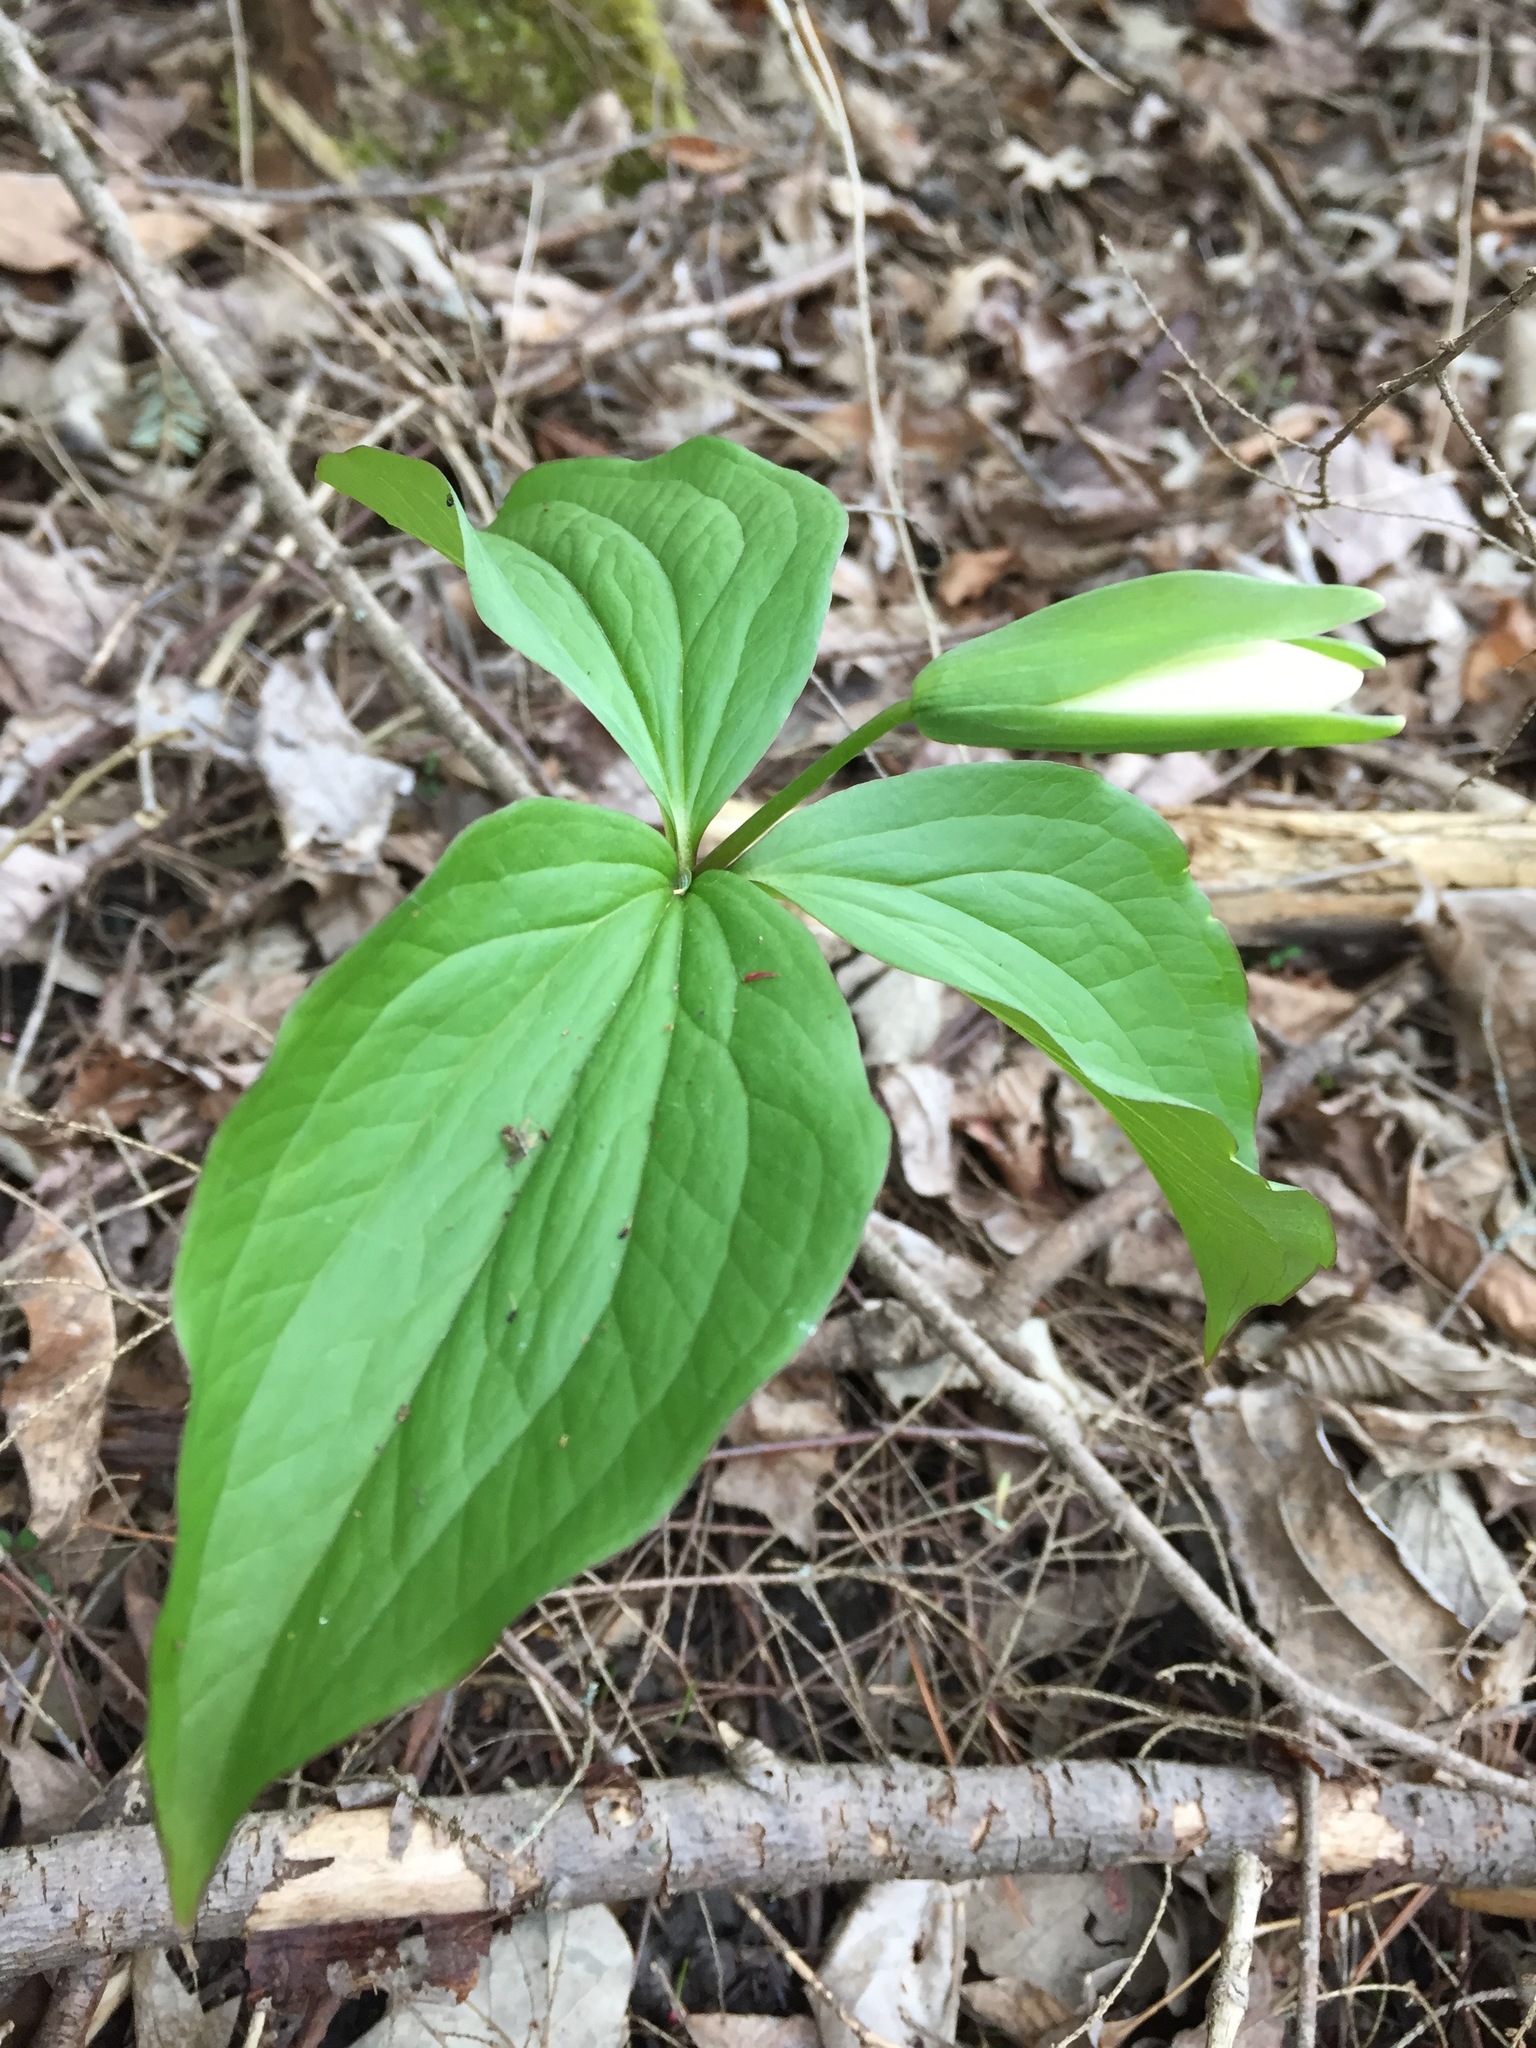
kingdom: Plantae
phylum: Tracheophyta
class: Liliopsida
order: Liliales
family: Melanthiaceae
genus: Trillium
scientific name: Trillium grandiflorum
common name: Great white trillium
